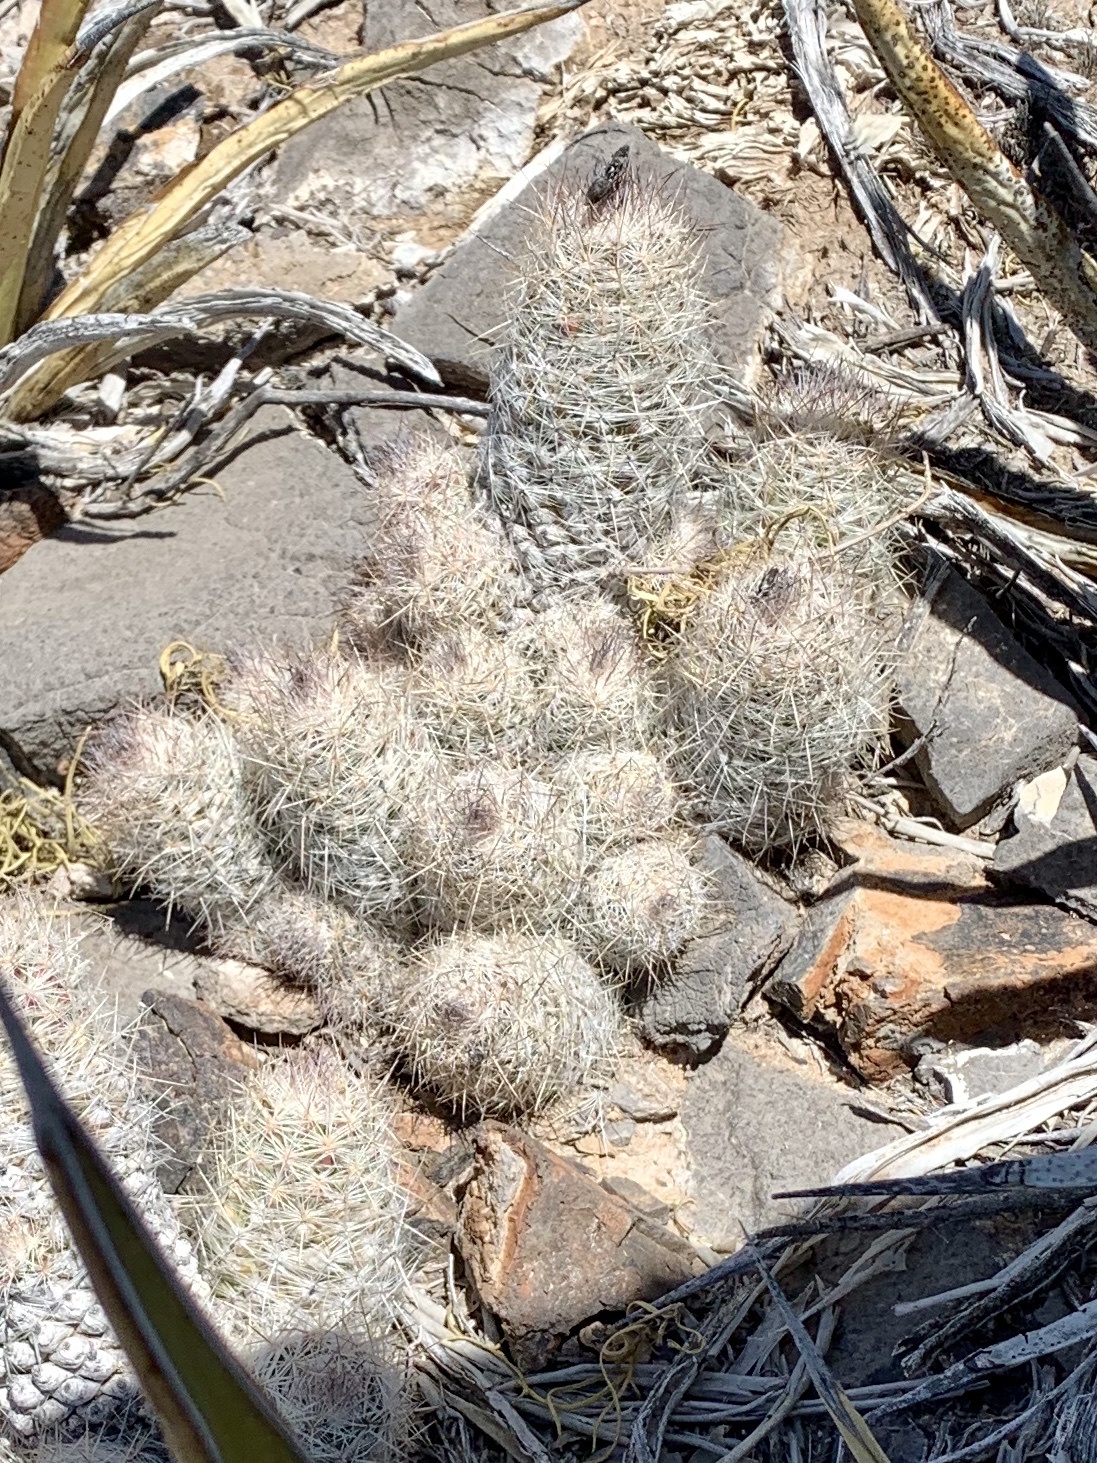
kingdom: Plantae
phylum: Tracheophyta
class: Magnoliopsida
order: Caryophyllales
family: Cactaceae
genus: Pelecyphora
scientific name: Pelecyphora tuberculosa
